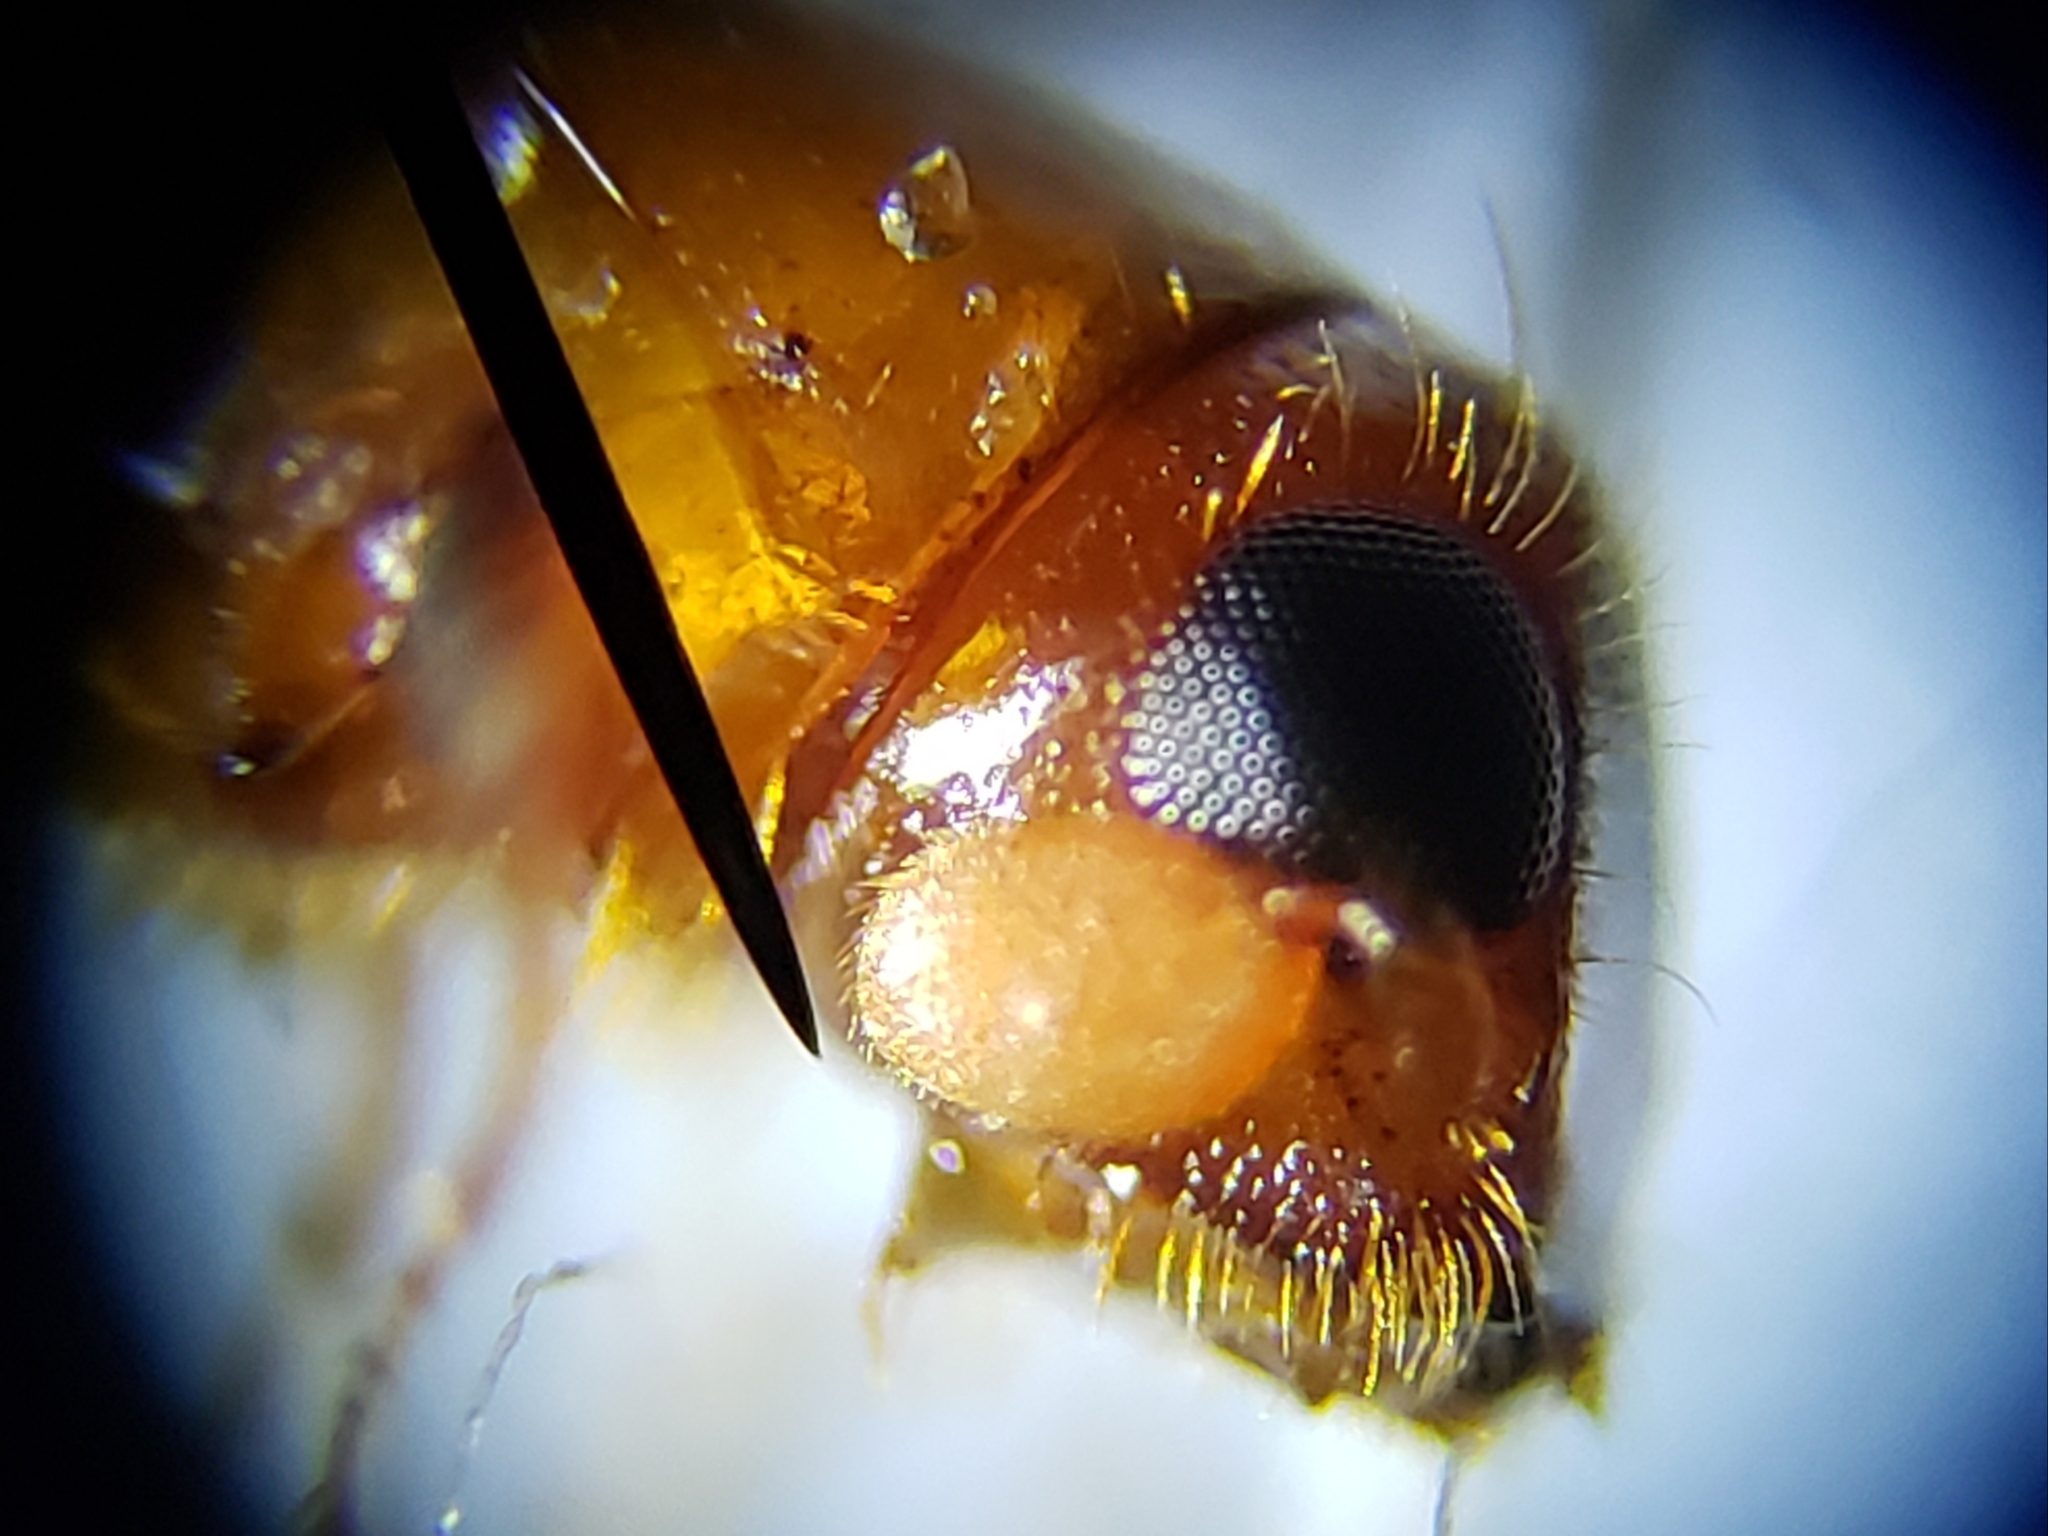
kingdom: Animalia
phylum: Arthropoda
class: Insecta
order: Coleoptera
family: Curculionidae
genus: Euplatypus
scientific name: Euplatypus compositus
